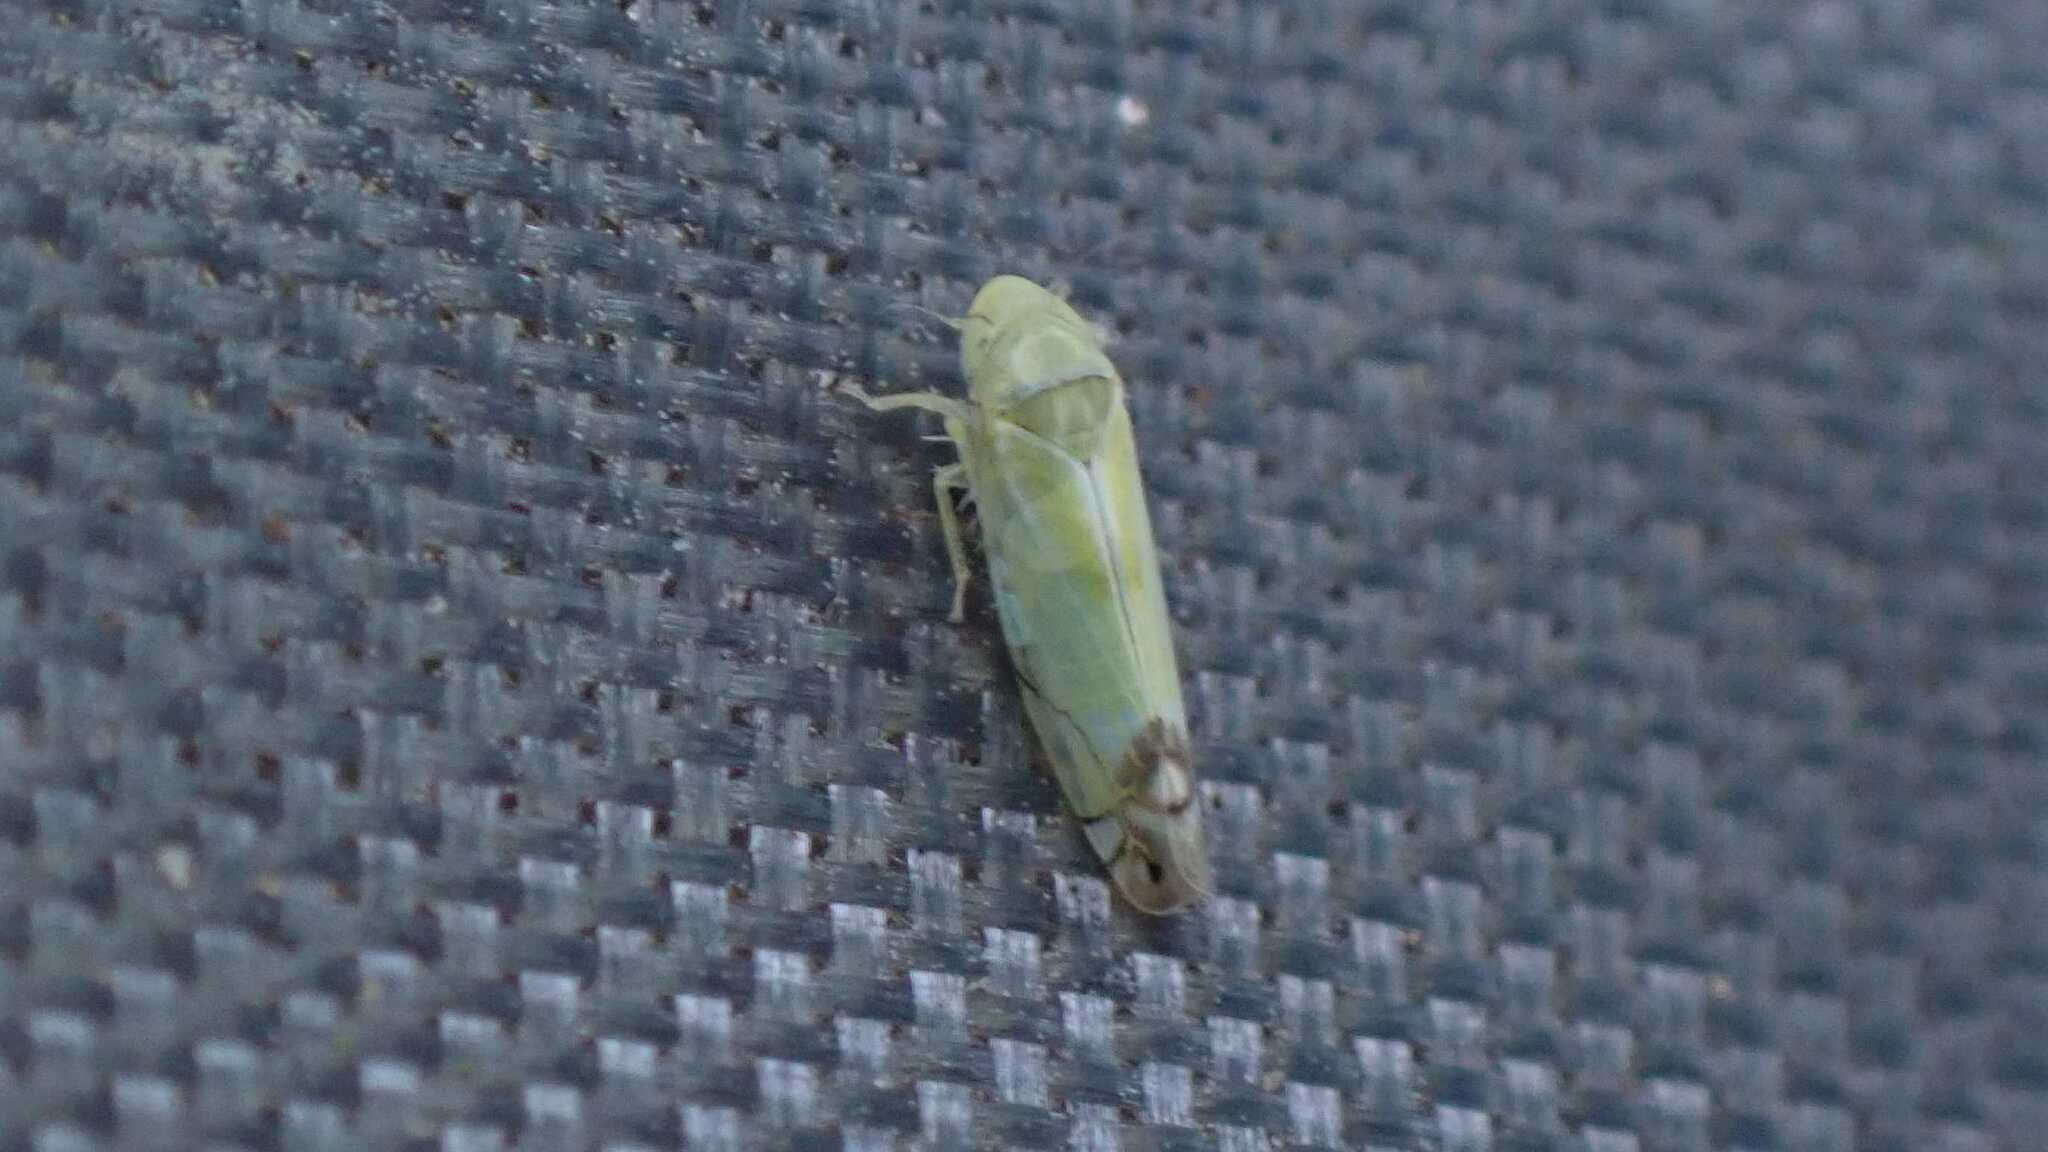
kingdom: Animalia
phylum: Arthropoda
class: Insecta
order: Hemiptera
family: Cicadellidae
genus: Zyginella
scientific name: Zyginella pulchra
